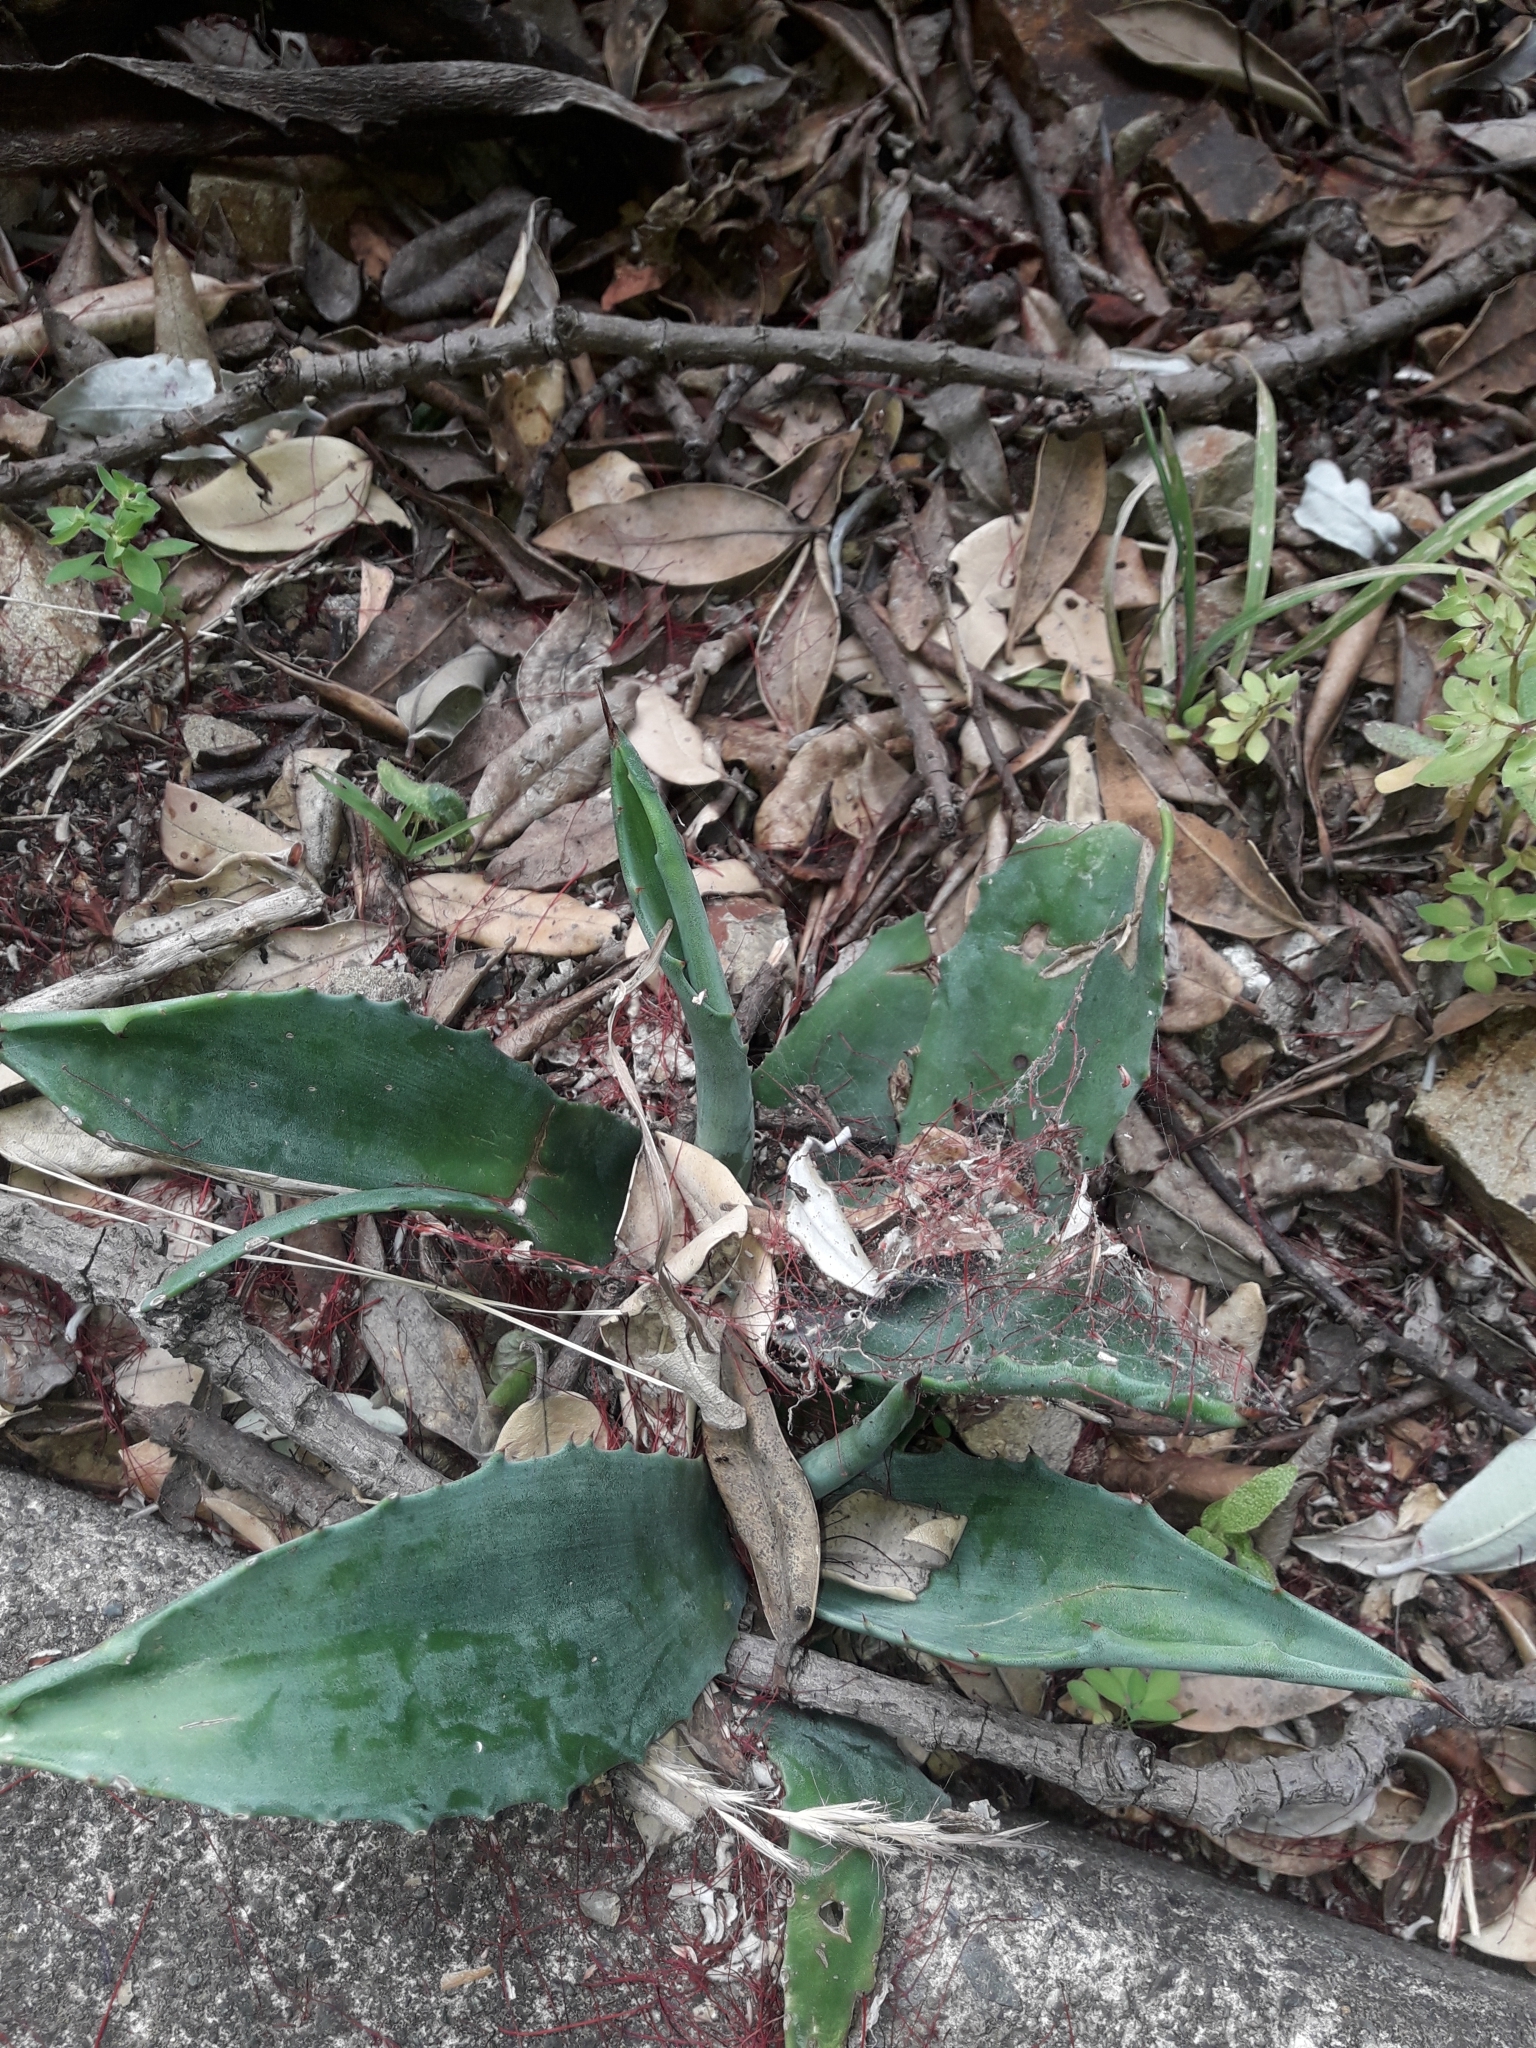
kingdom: Plantae
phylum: Tracheophyta
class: Liliopsida
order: Asparagales
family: Asparagaceae
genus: Agave
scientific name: Agave americana
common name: Centuryplant
